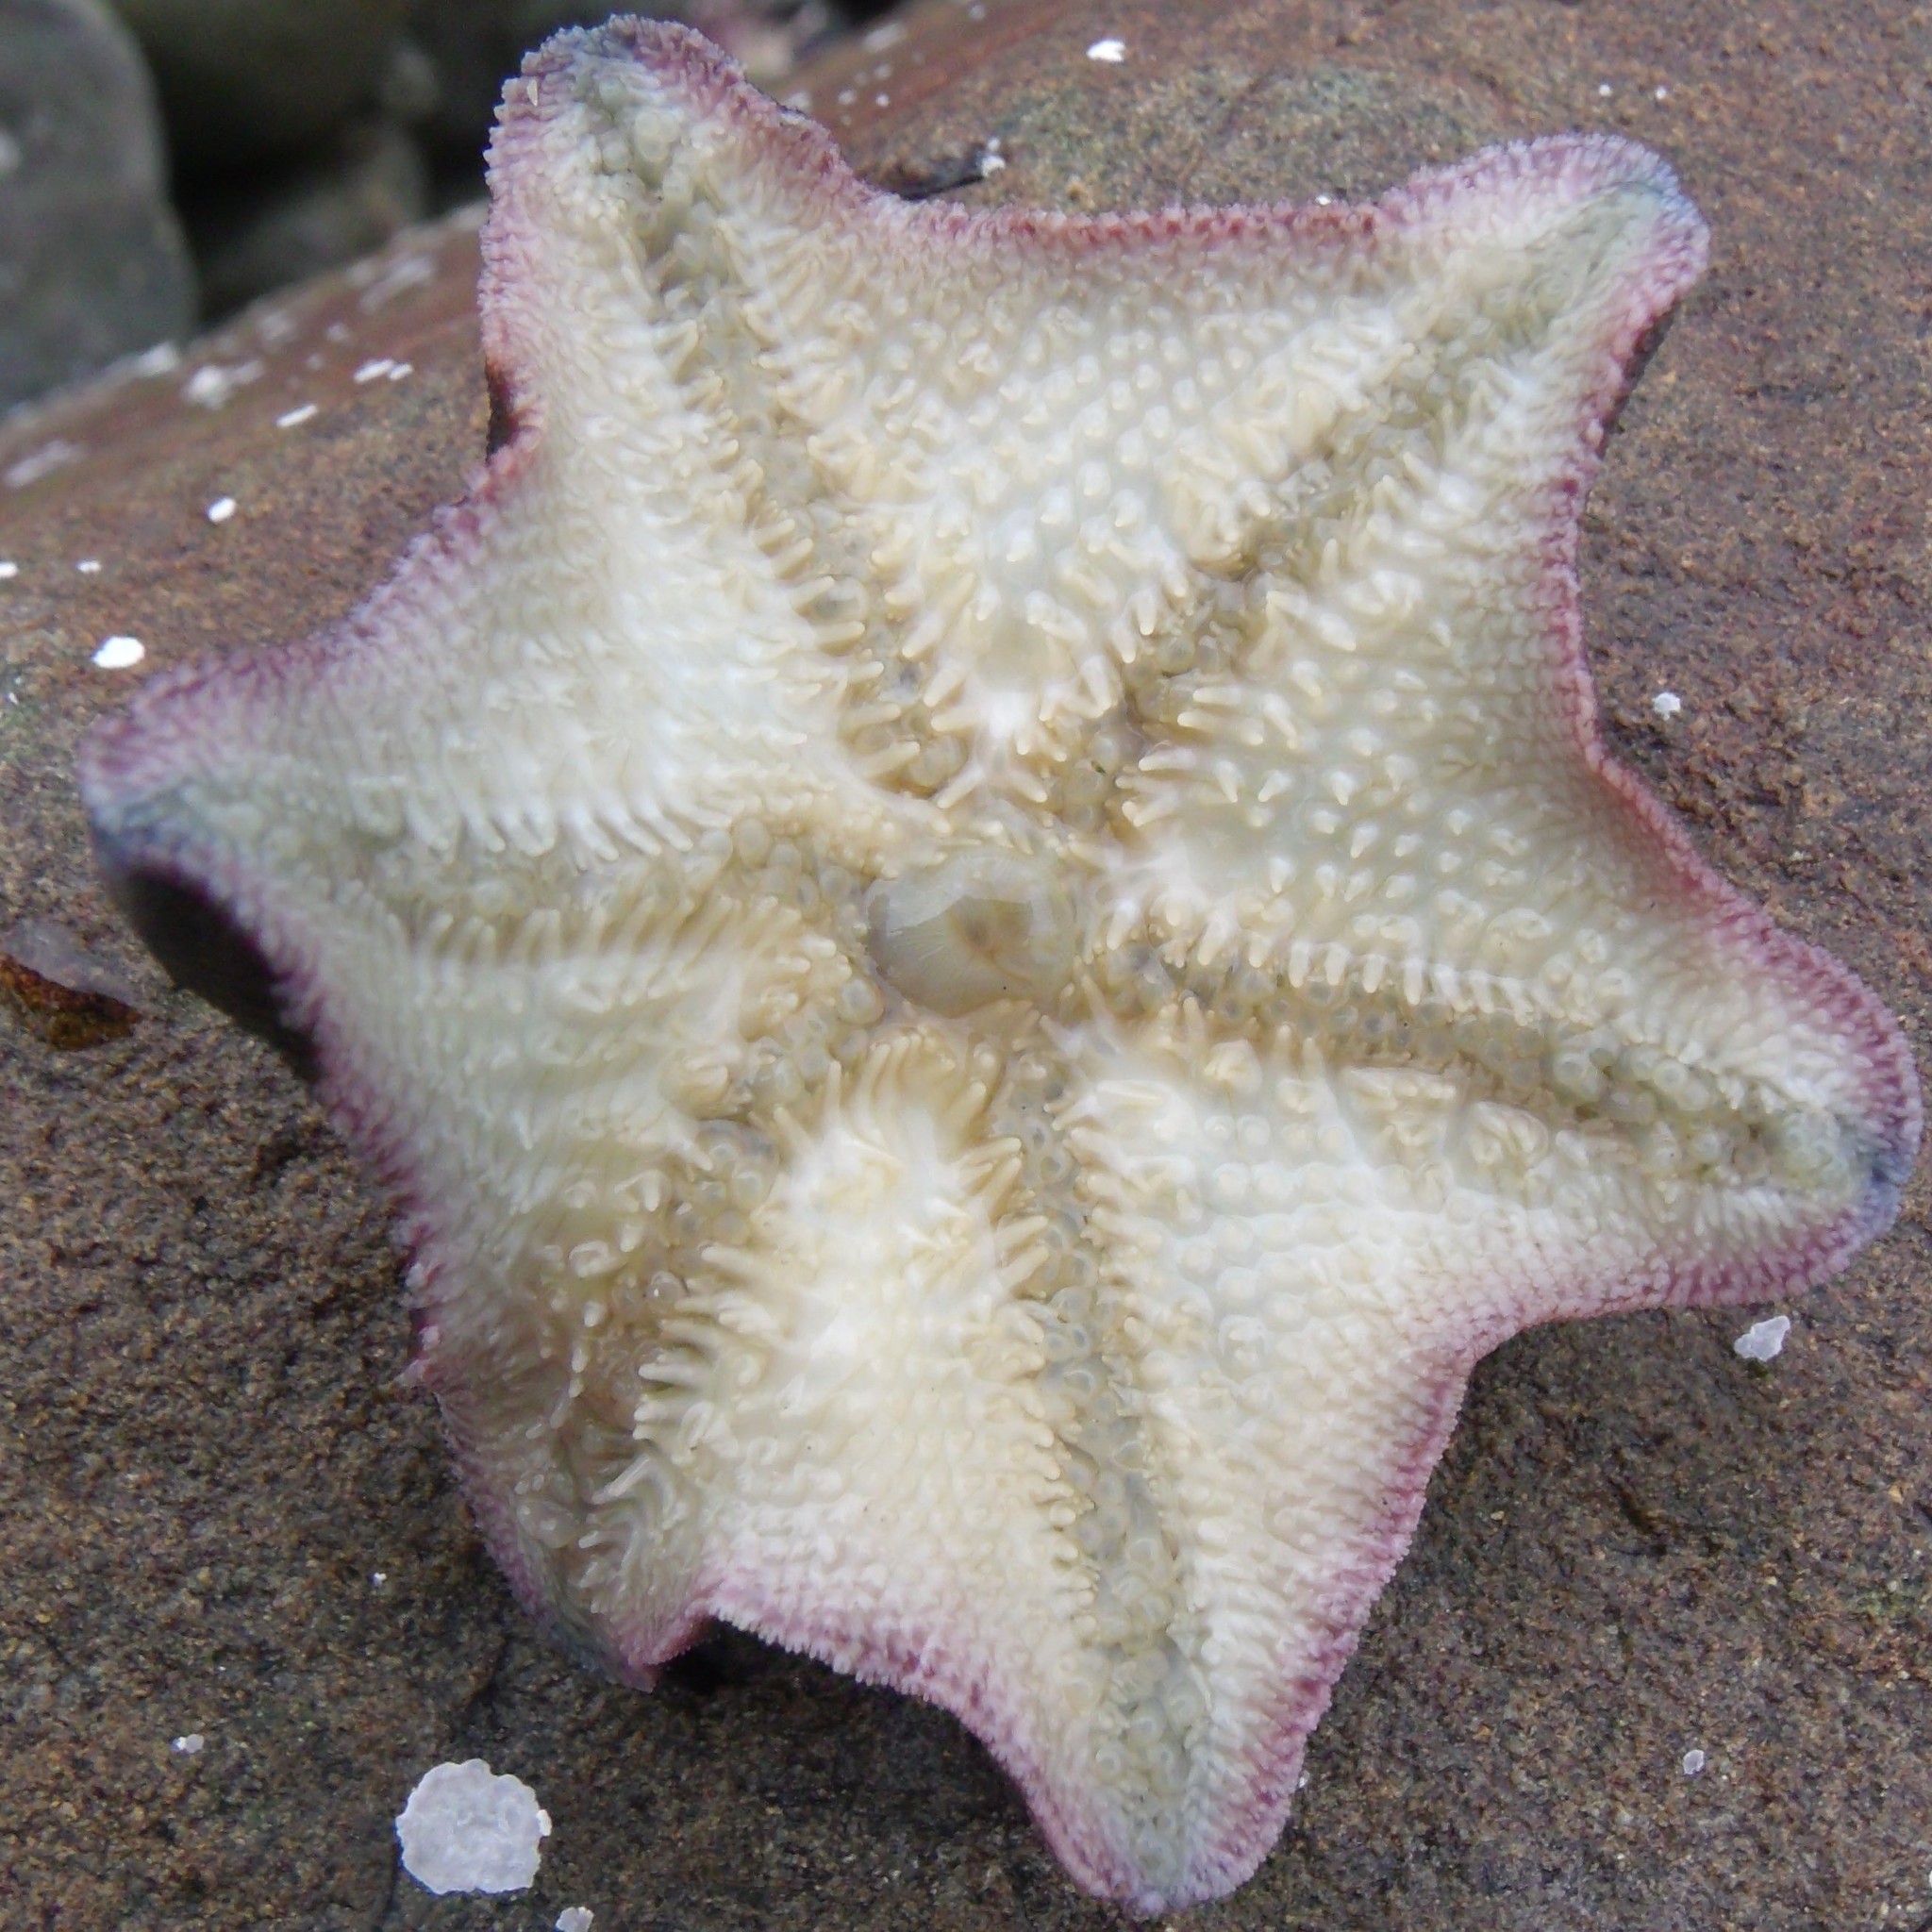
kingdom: Animalia
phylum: Echinodermata
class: Asteroidea
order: Valvatida
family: Asterinidae
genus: Patiriella
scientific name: Patiriella regularis
